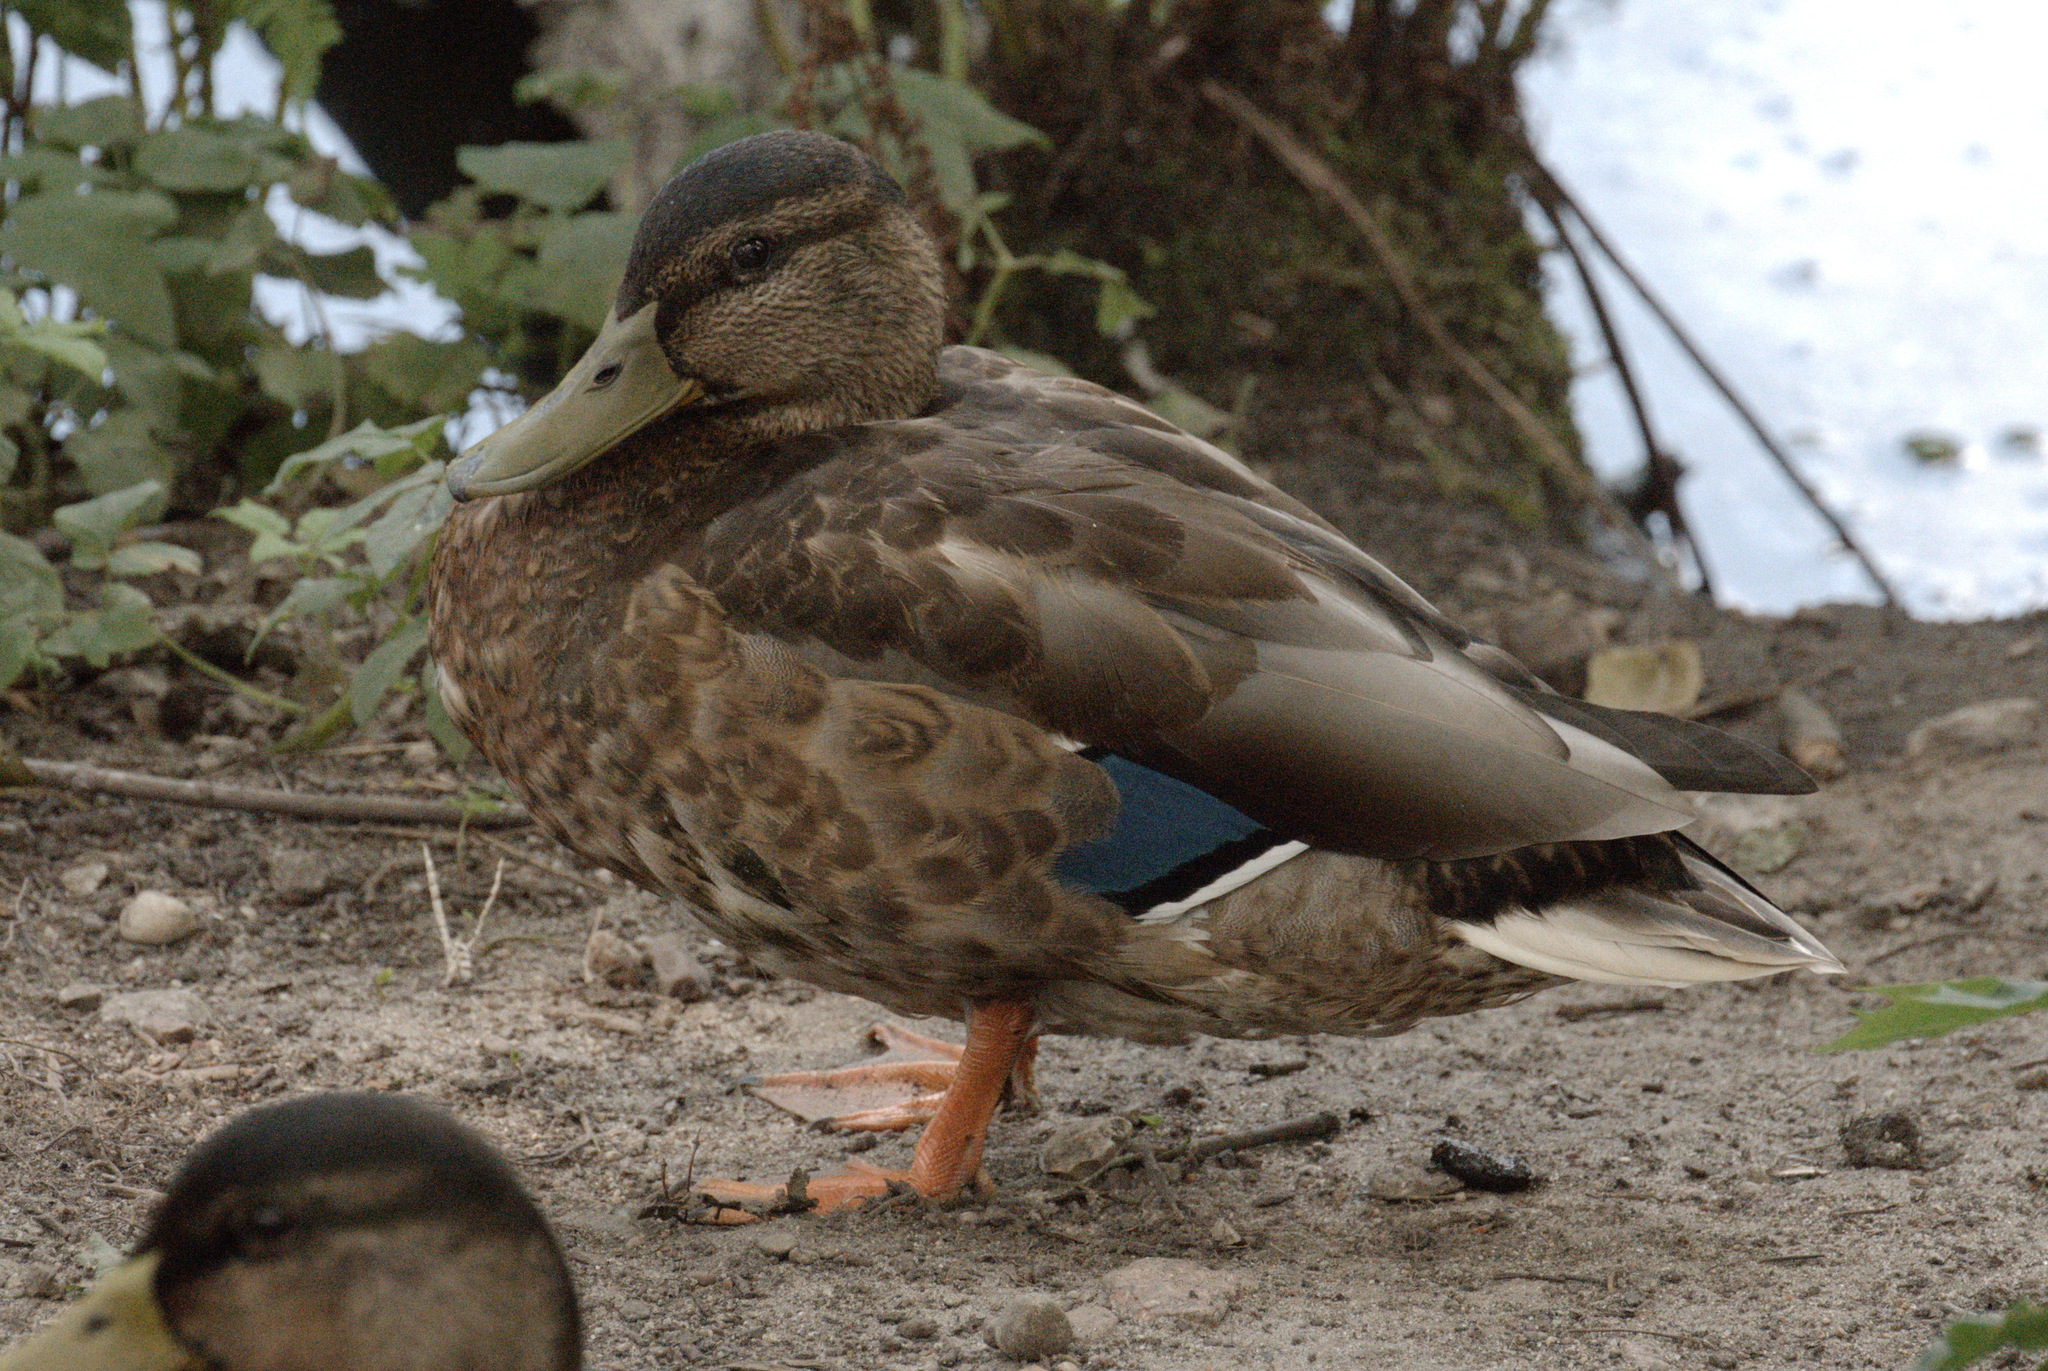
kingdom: Animalia
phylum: Chordata
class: Aves
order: Anseriformes
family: Anatidae
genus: Anas
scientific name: Anas platyrhynchos
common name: Mallard
